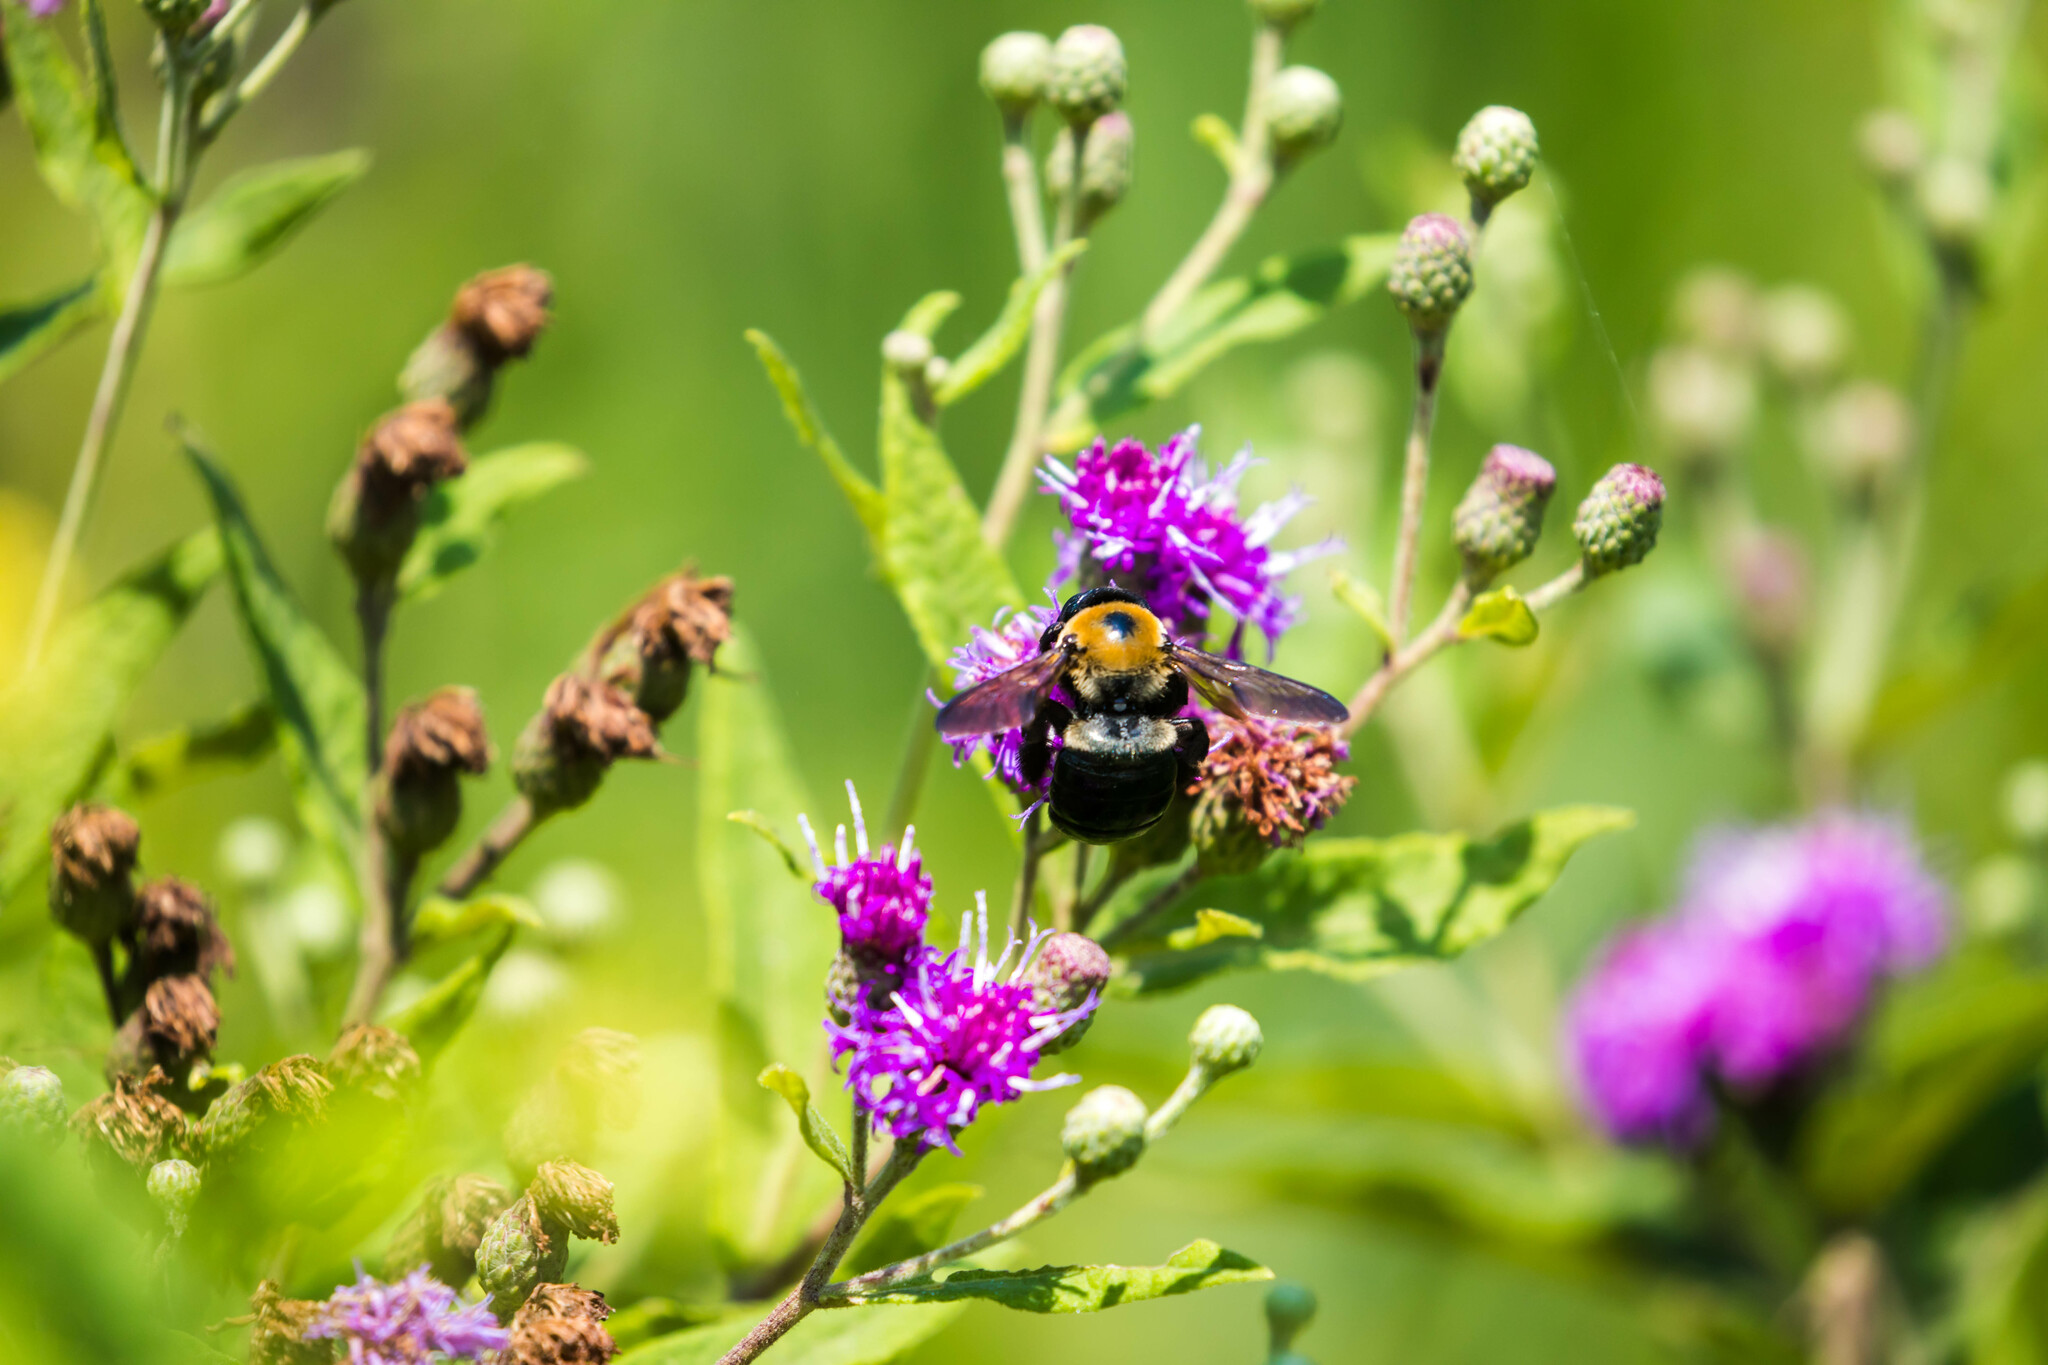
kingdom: Animalia
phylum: Arthropoda
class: Insecta
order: Hymenoptera
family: Apidae
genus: Xylocopa
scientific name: Xylocopa virginica
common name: Carpenter bee
